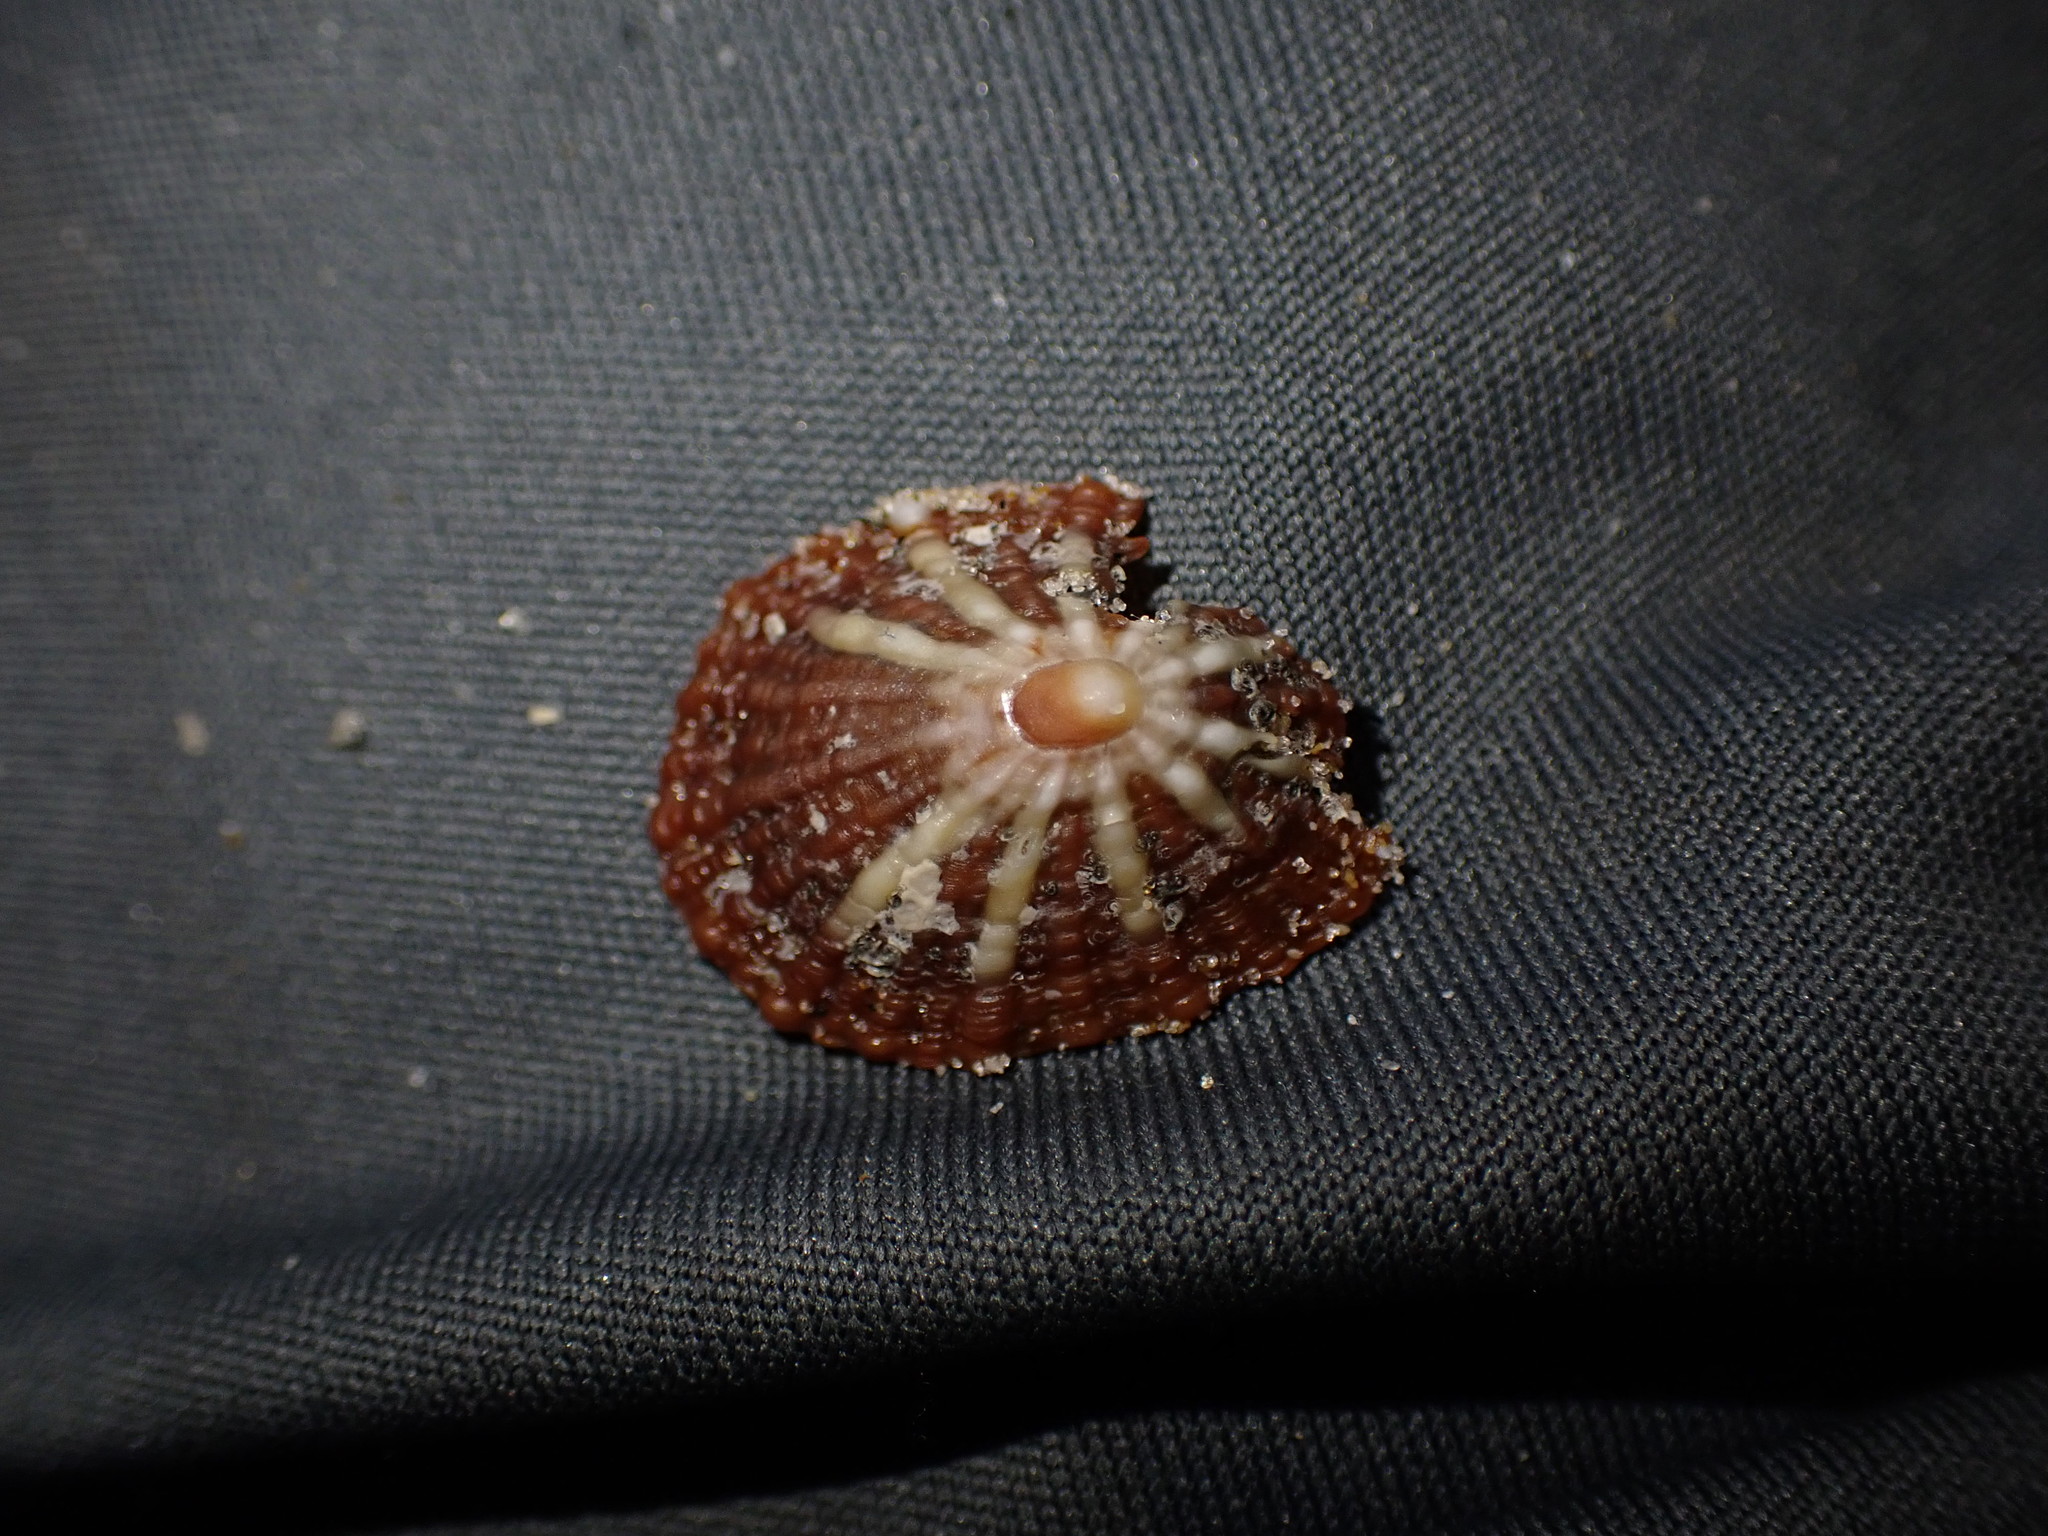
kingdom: Animalia
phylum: Mollusca
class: Gastropoda
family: Nacellidae
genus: Cellana
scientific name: Cellana stellifera
